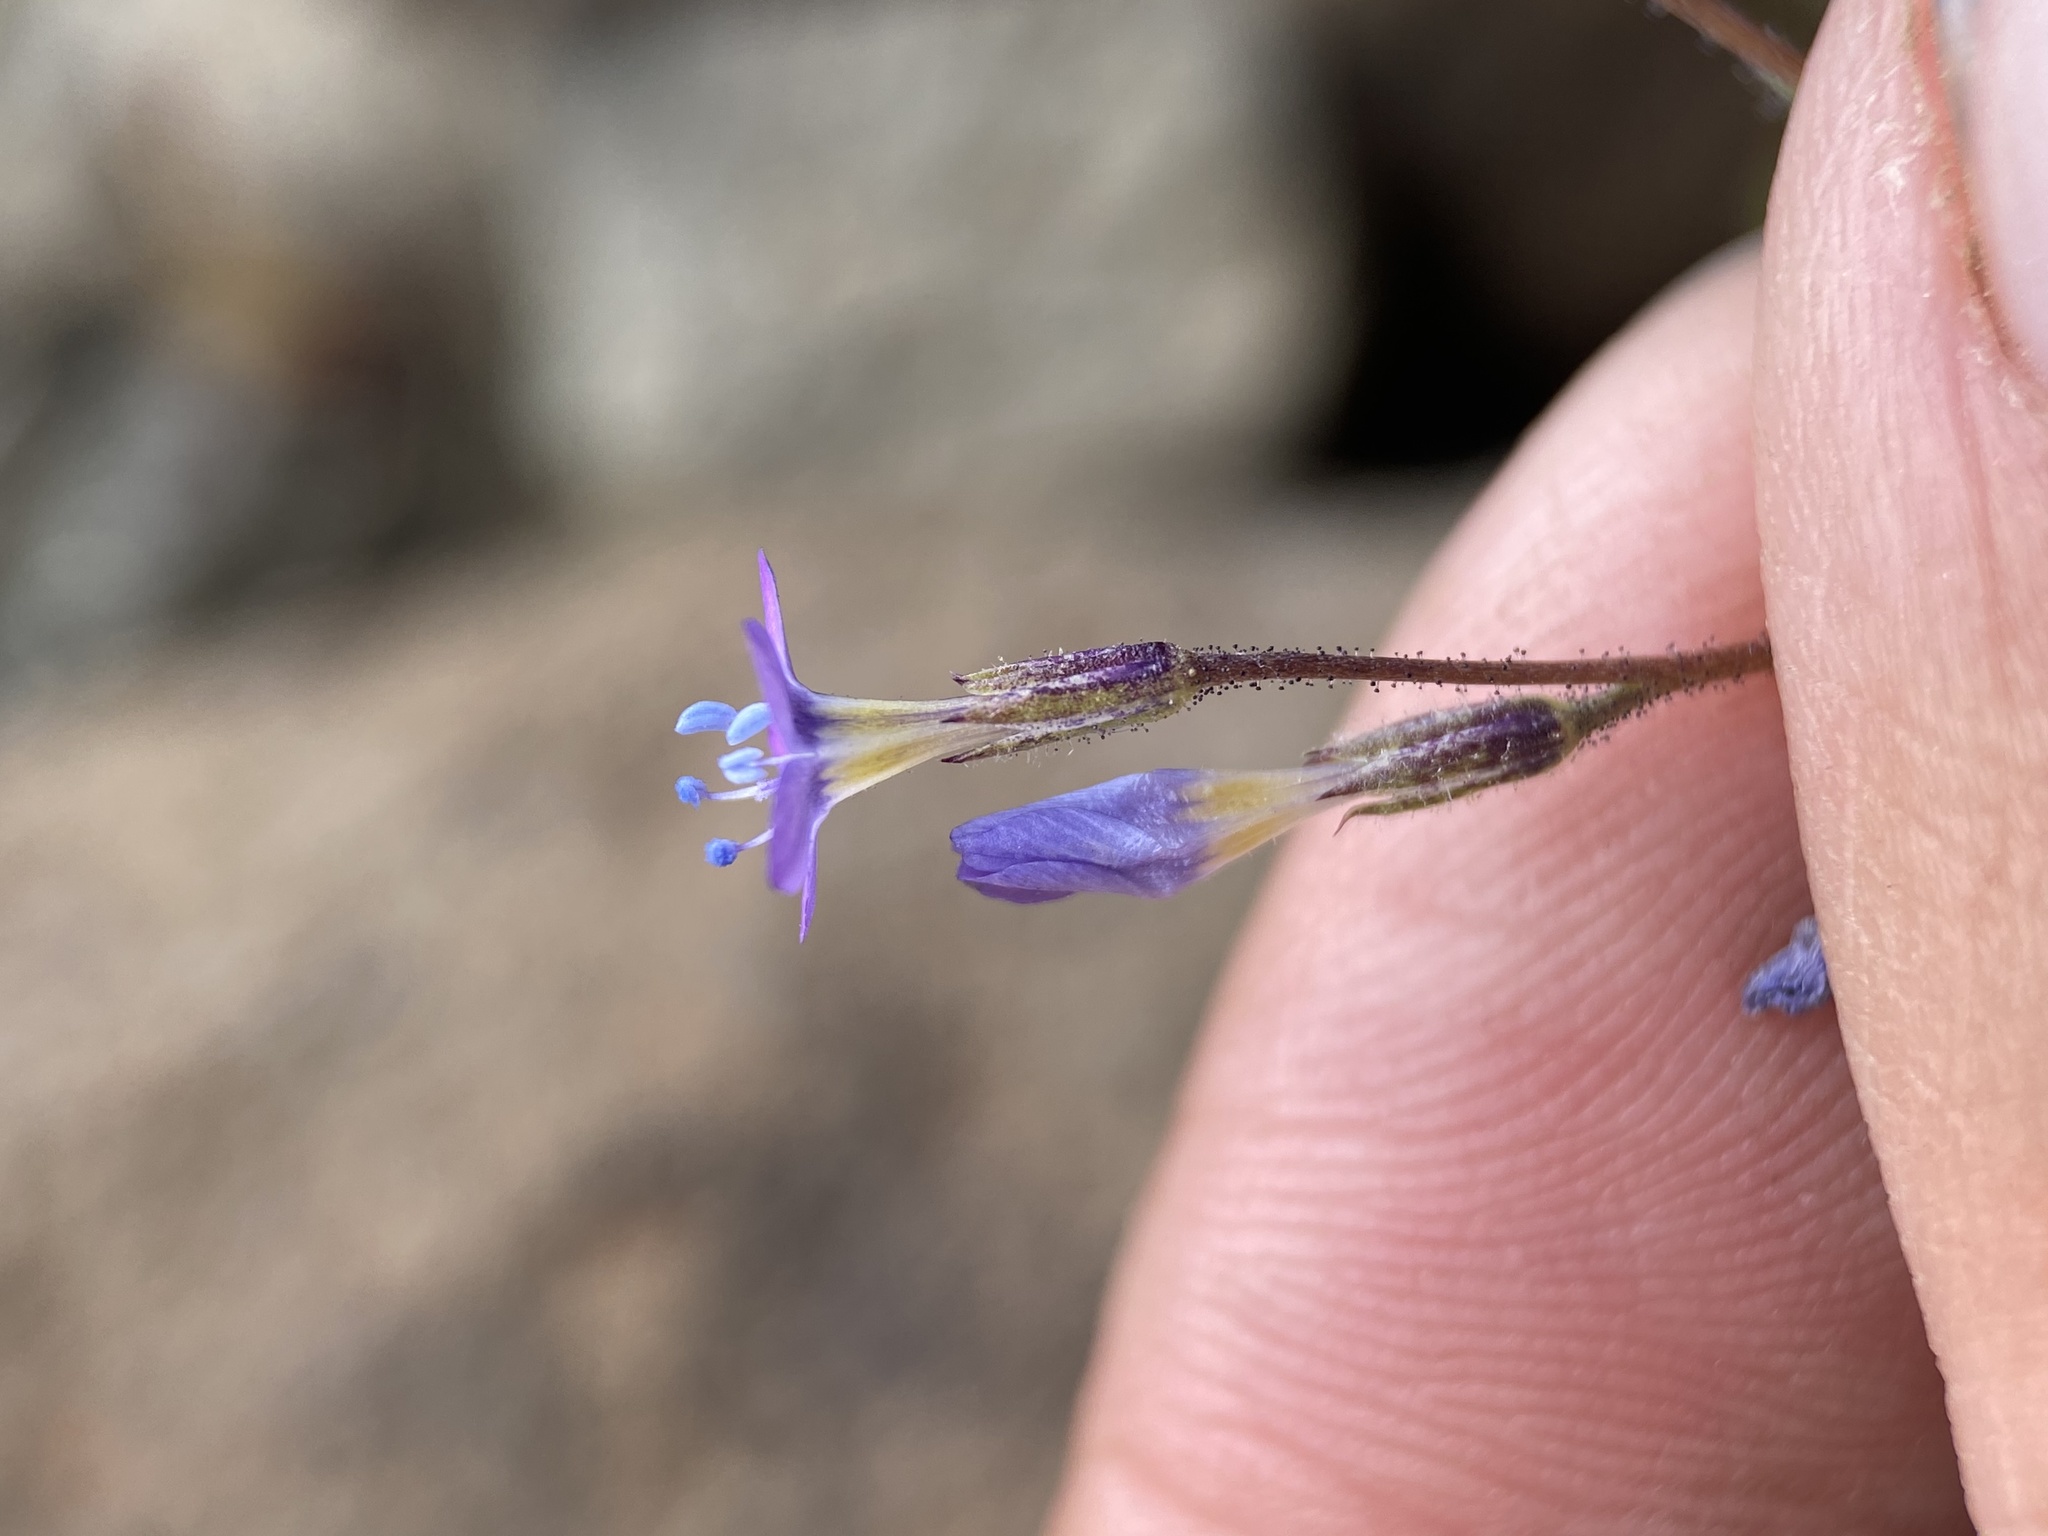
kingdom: Plantae
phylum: Tracheophyta
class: Magnoliopsida
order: Ericales
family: Polemoniaceae
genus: Gilia
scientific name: Gilia inconspicua
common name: Shy gilia
